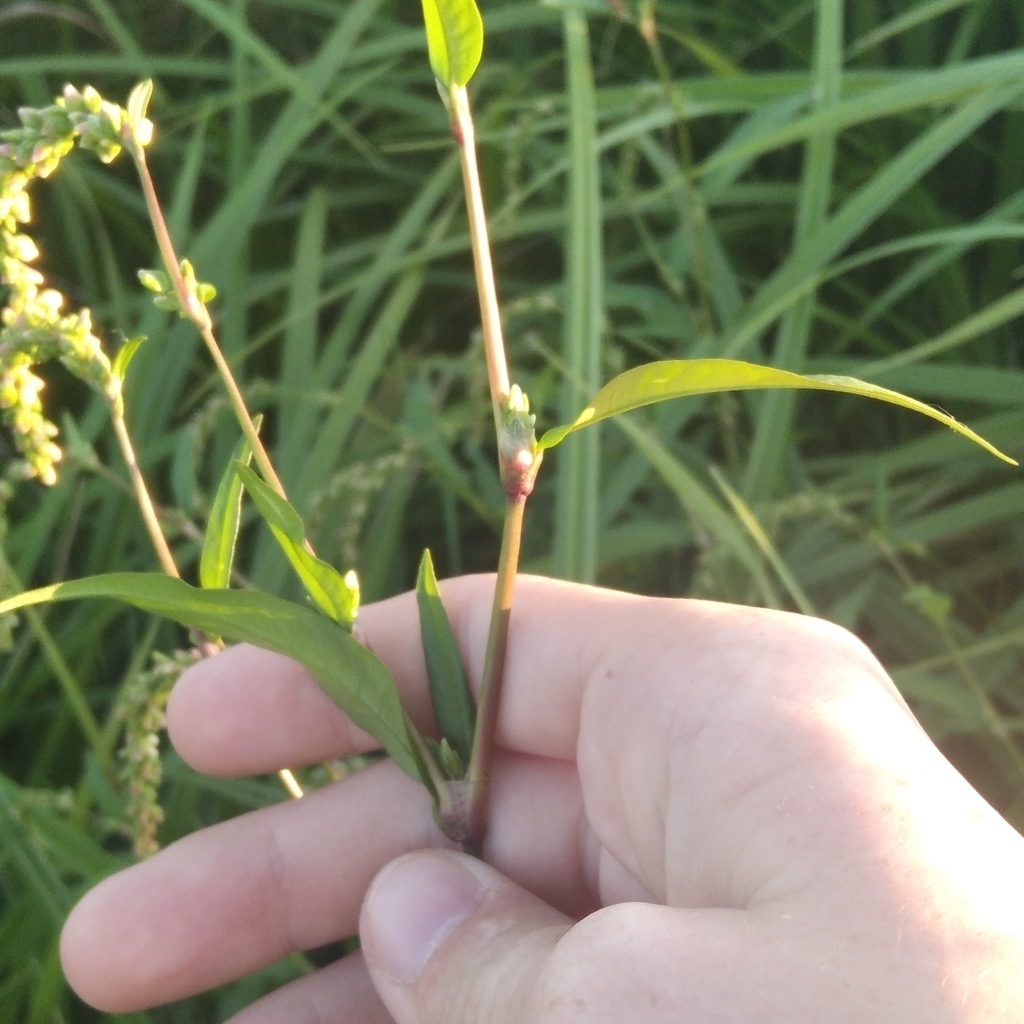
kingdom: Plantae
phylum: Tracheophyta
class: Magnoliopsida
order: Caryophyllales
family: Polygonaceae
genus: Persicaria
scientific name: Persicaria hydropiper
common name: Water-pepper
